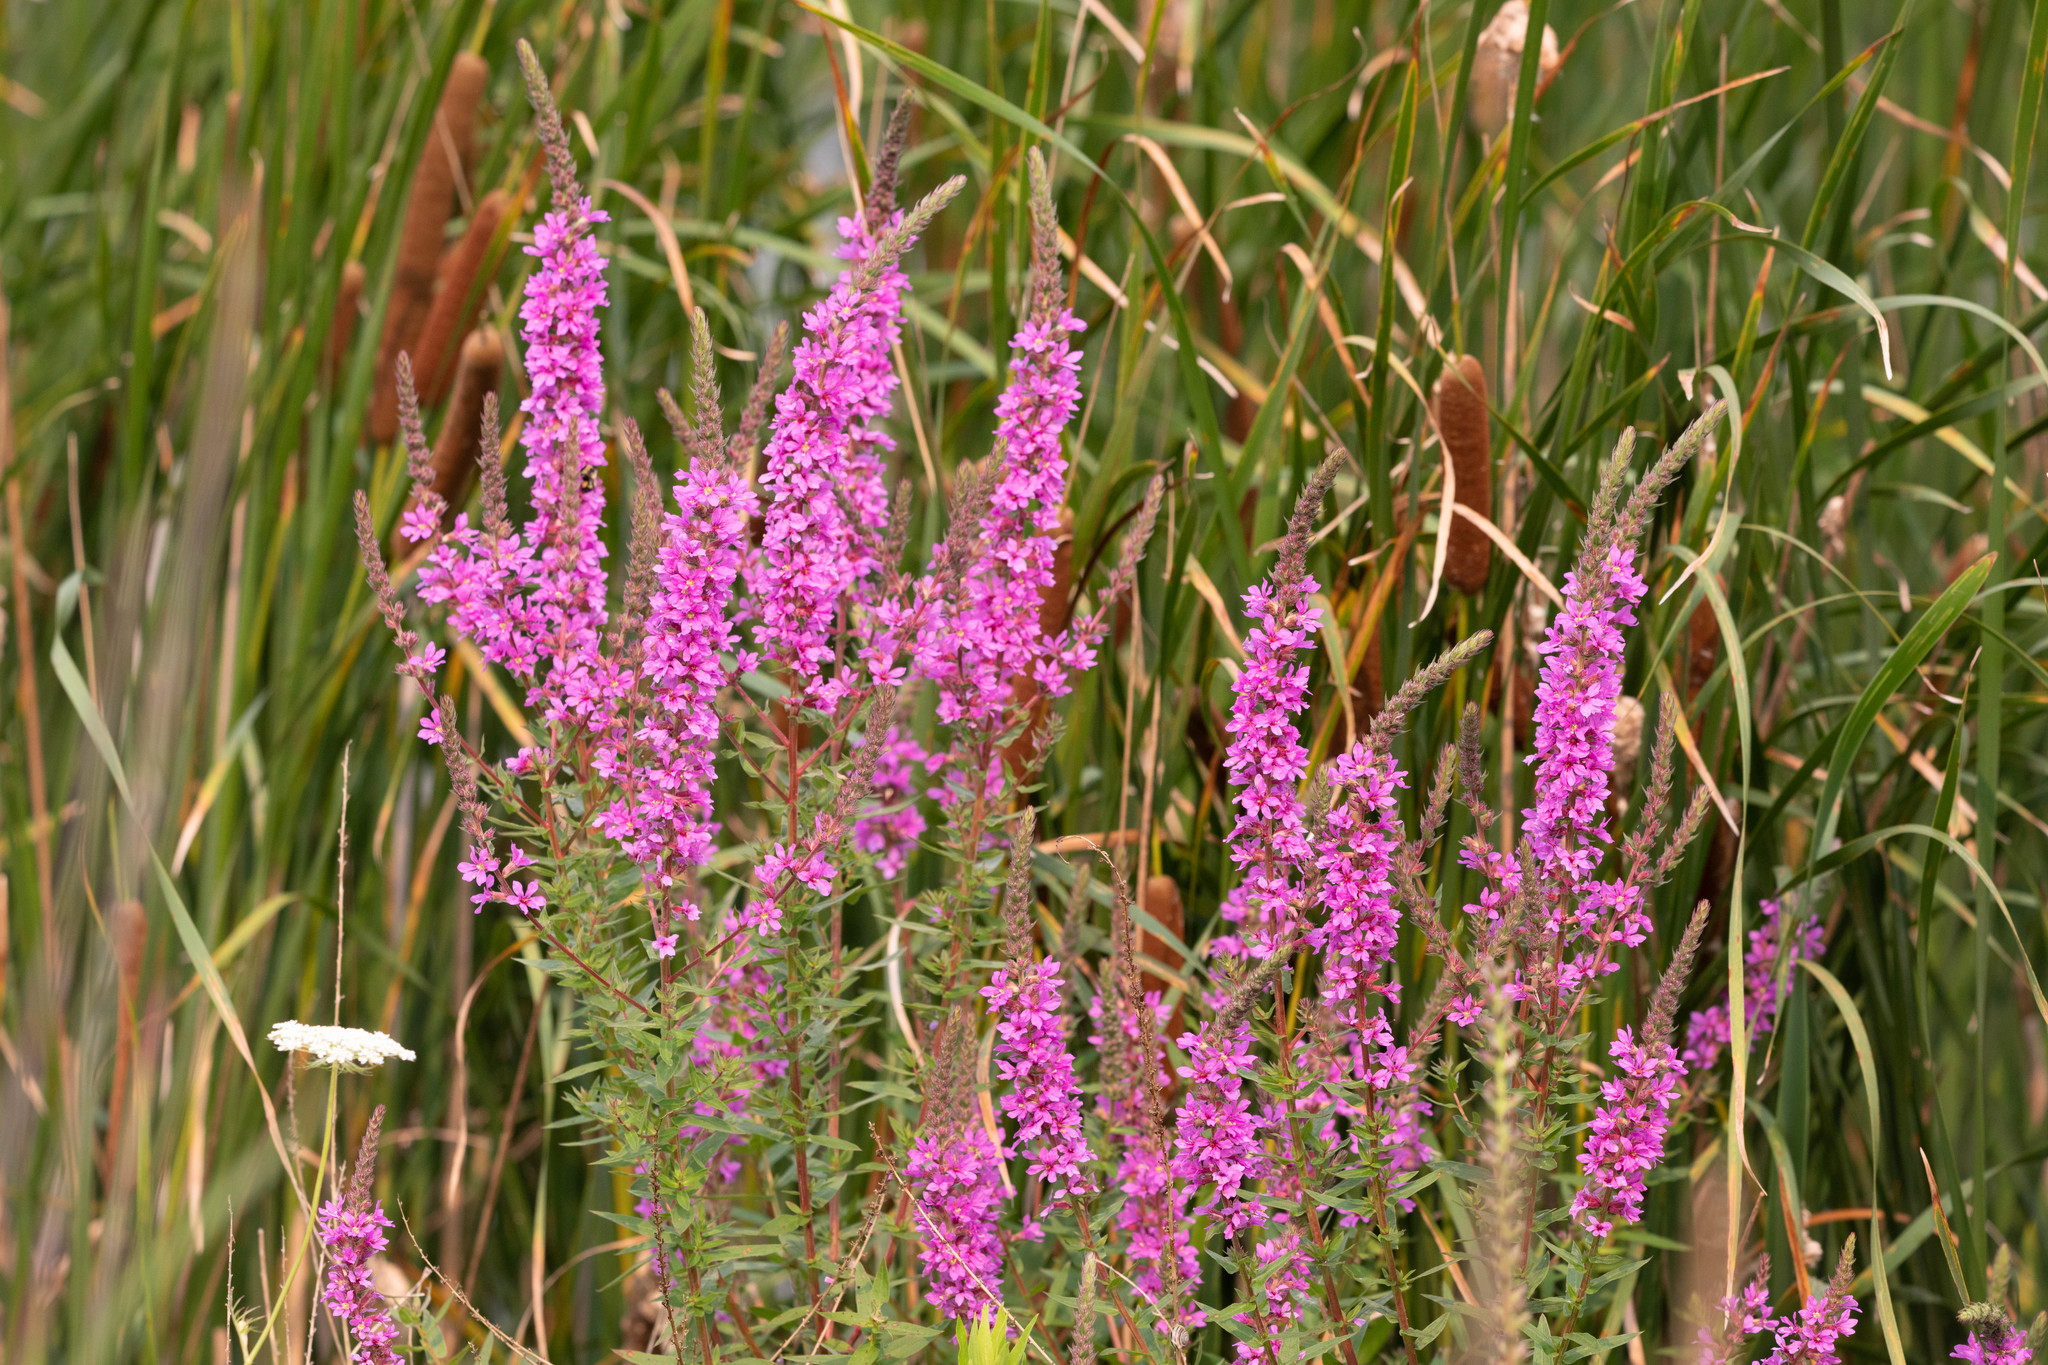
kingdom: Plantae
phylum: Tracheophyta
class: Magnoliopsida
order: Myrtales
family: Lythraceae
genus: Lythrum
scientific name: Lythrum salicaria
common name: Purple loosestrife
